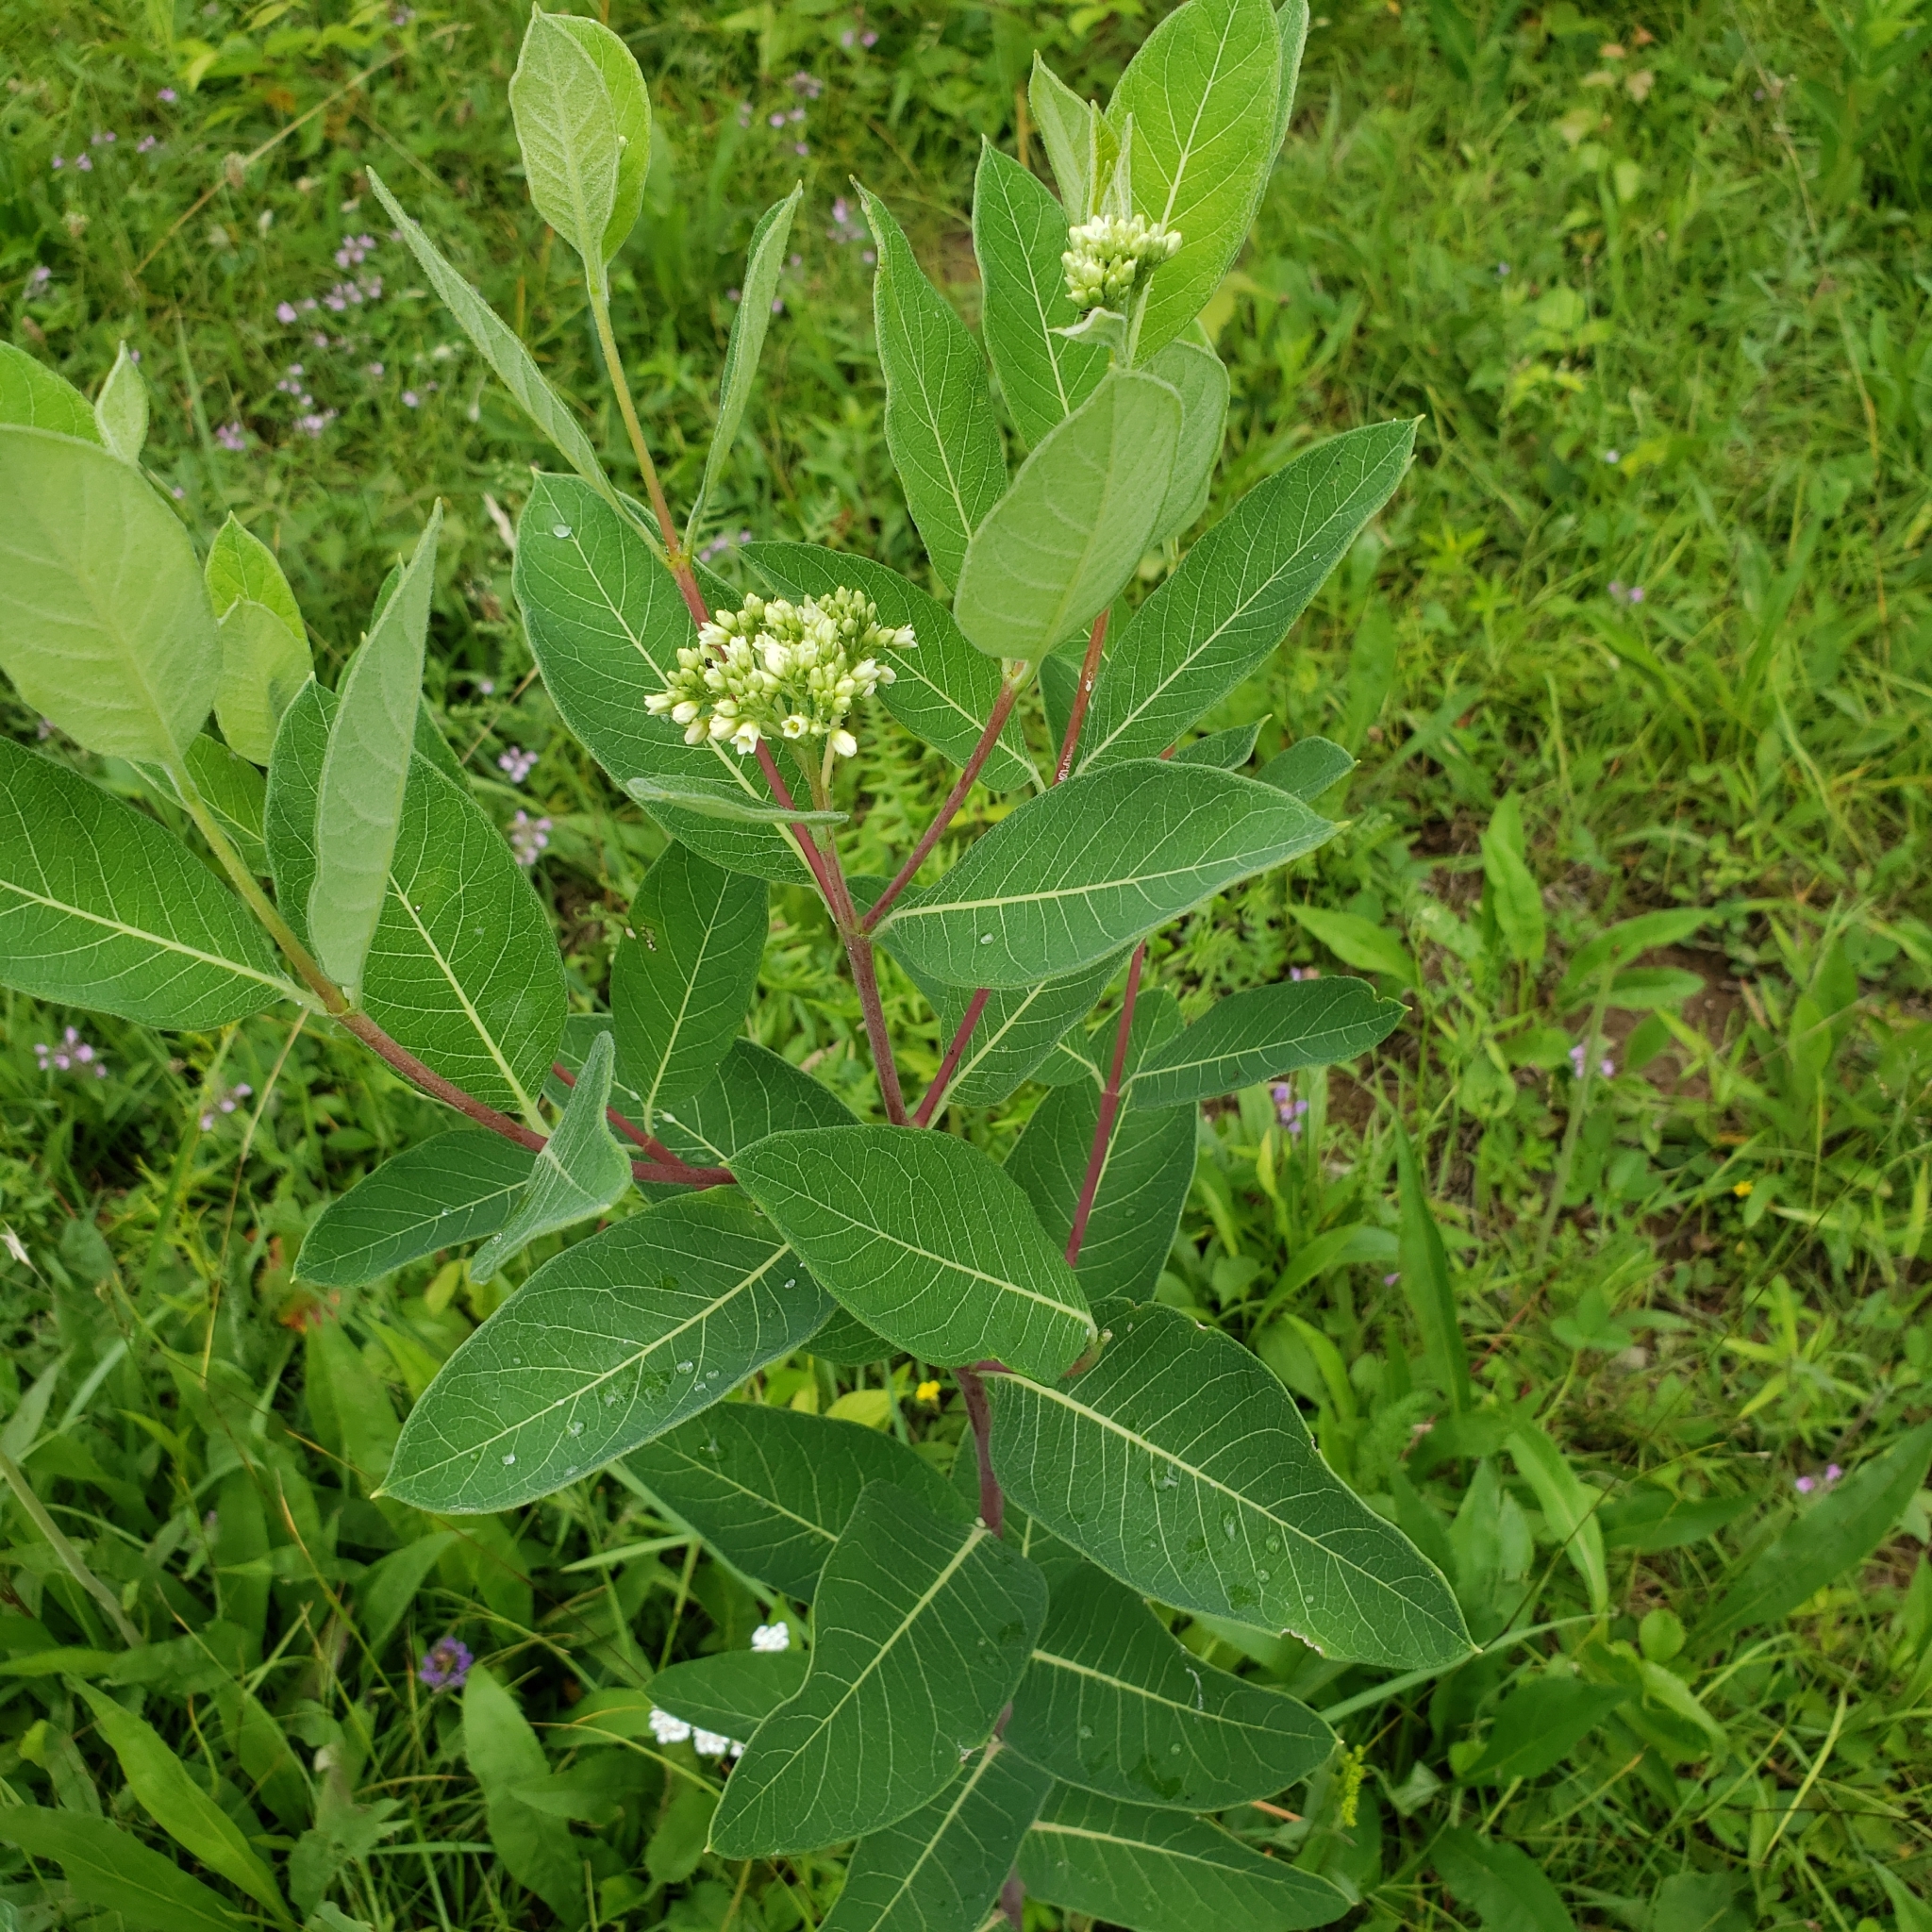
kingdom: Plantae
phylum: Tracheophyta
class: Magnoliopsida
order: Gentianales
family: Apocynaceae
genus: Apocynum
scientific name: Apocynum cannabinum
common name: Hemp dogbane
